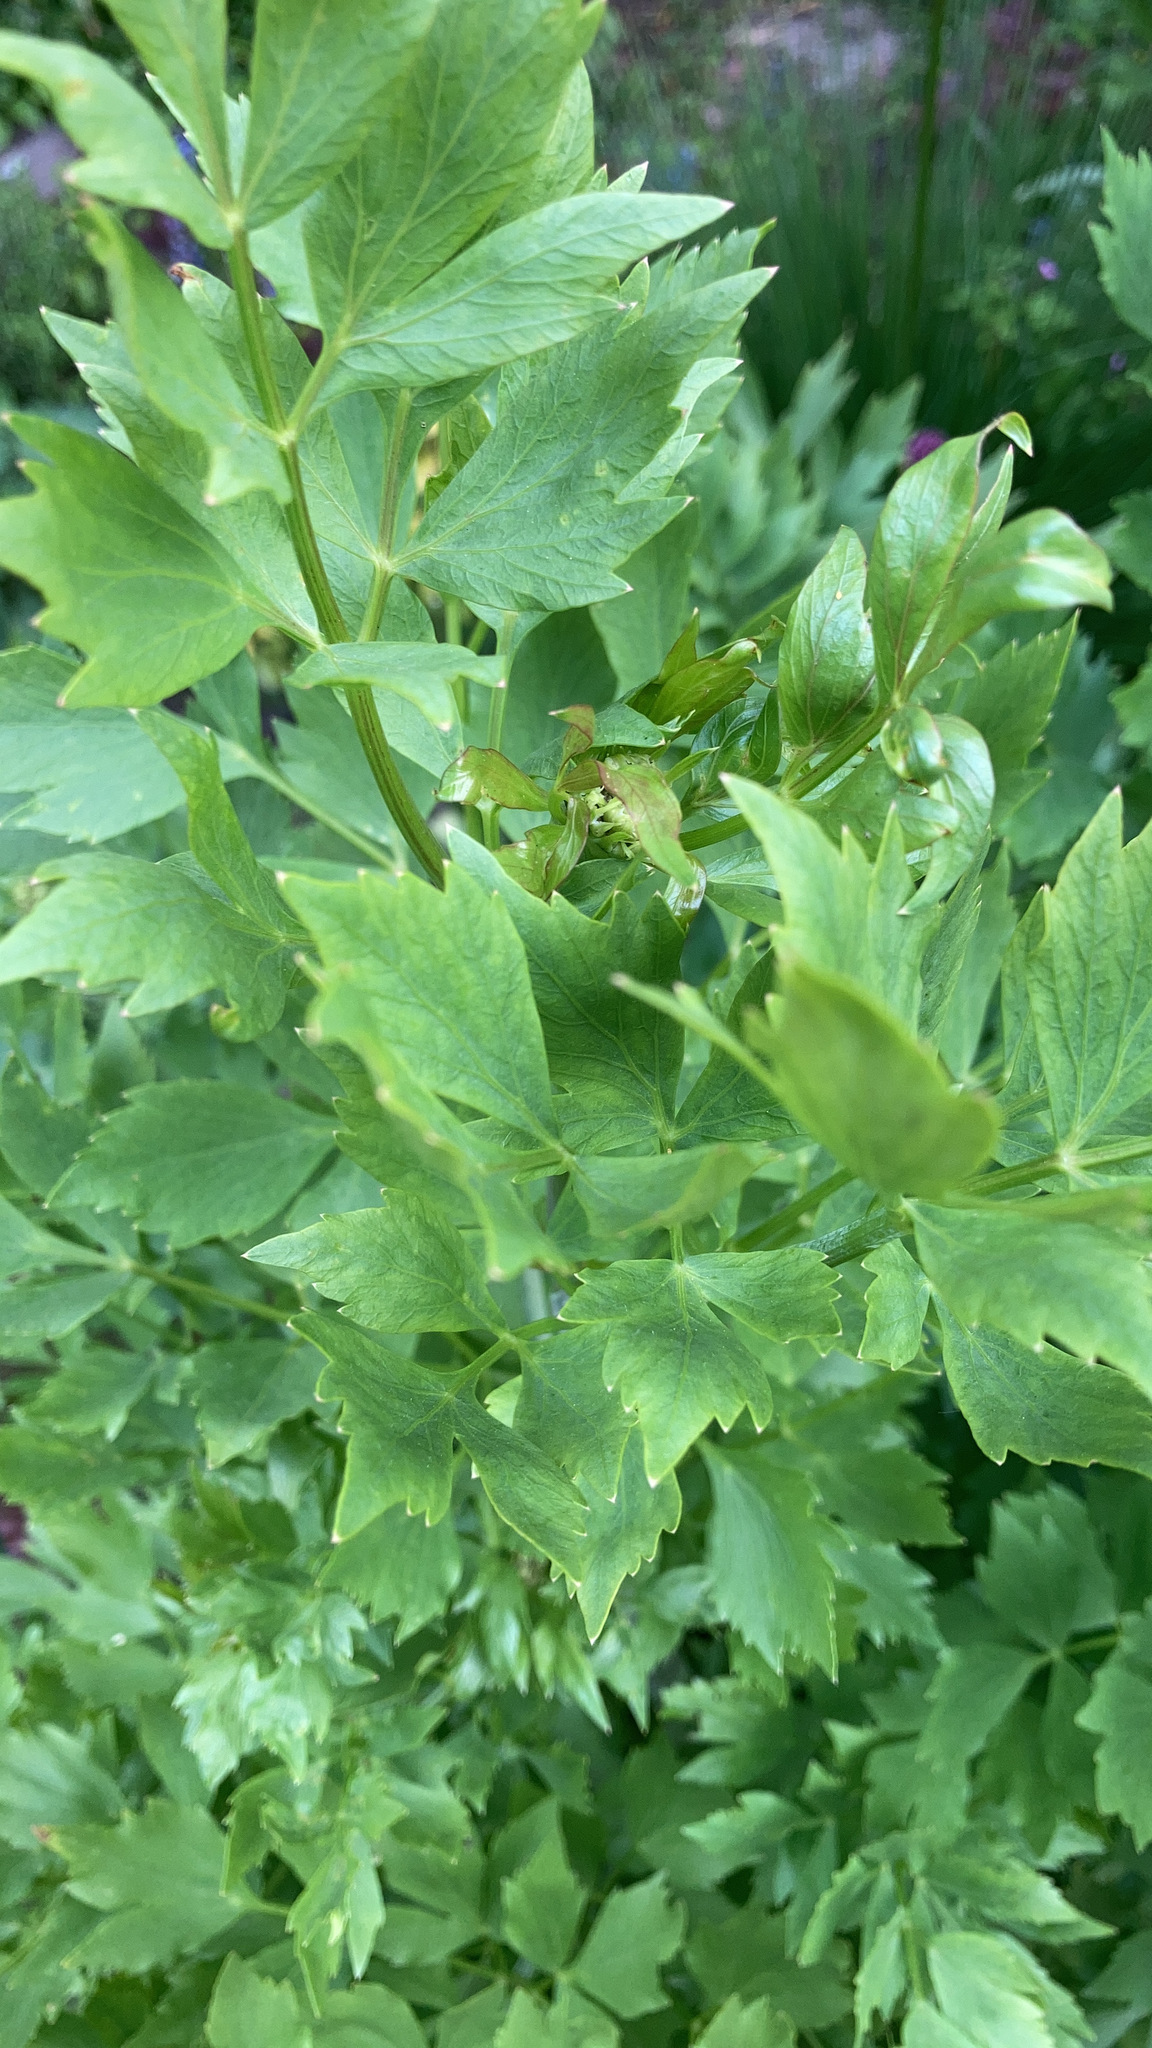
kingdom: Plantae
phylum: Tracheophyta
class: Magnoliopsida
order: Apiales
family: Apiaceae
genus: Apium
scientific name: Apium graveolens
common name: Wild celery
